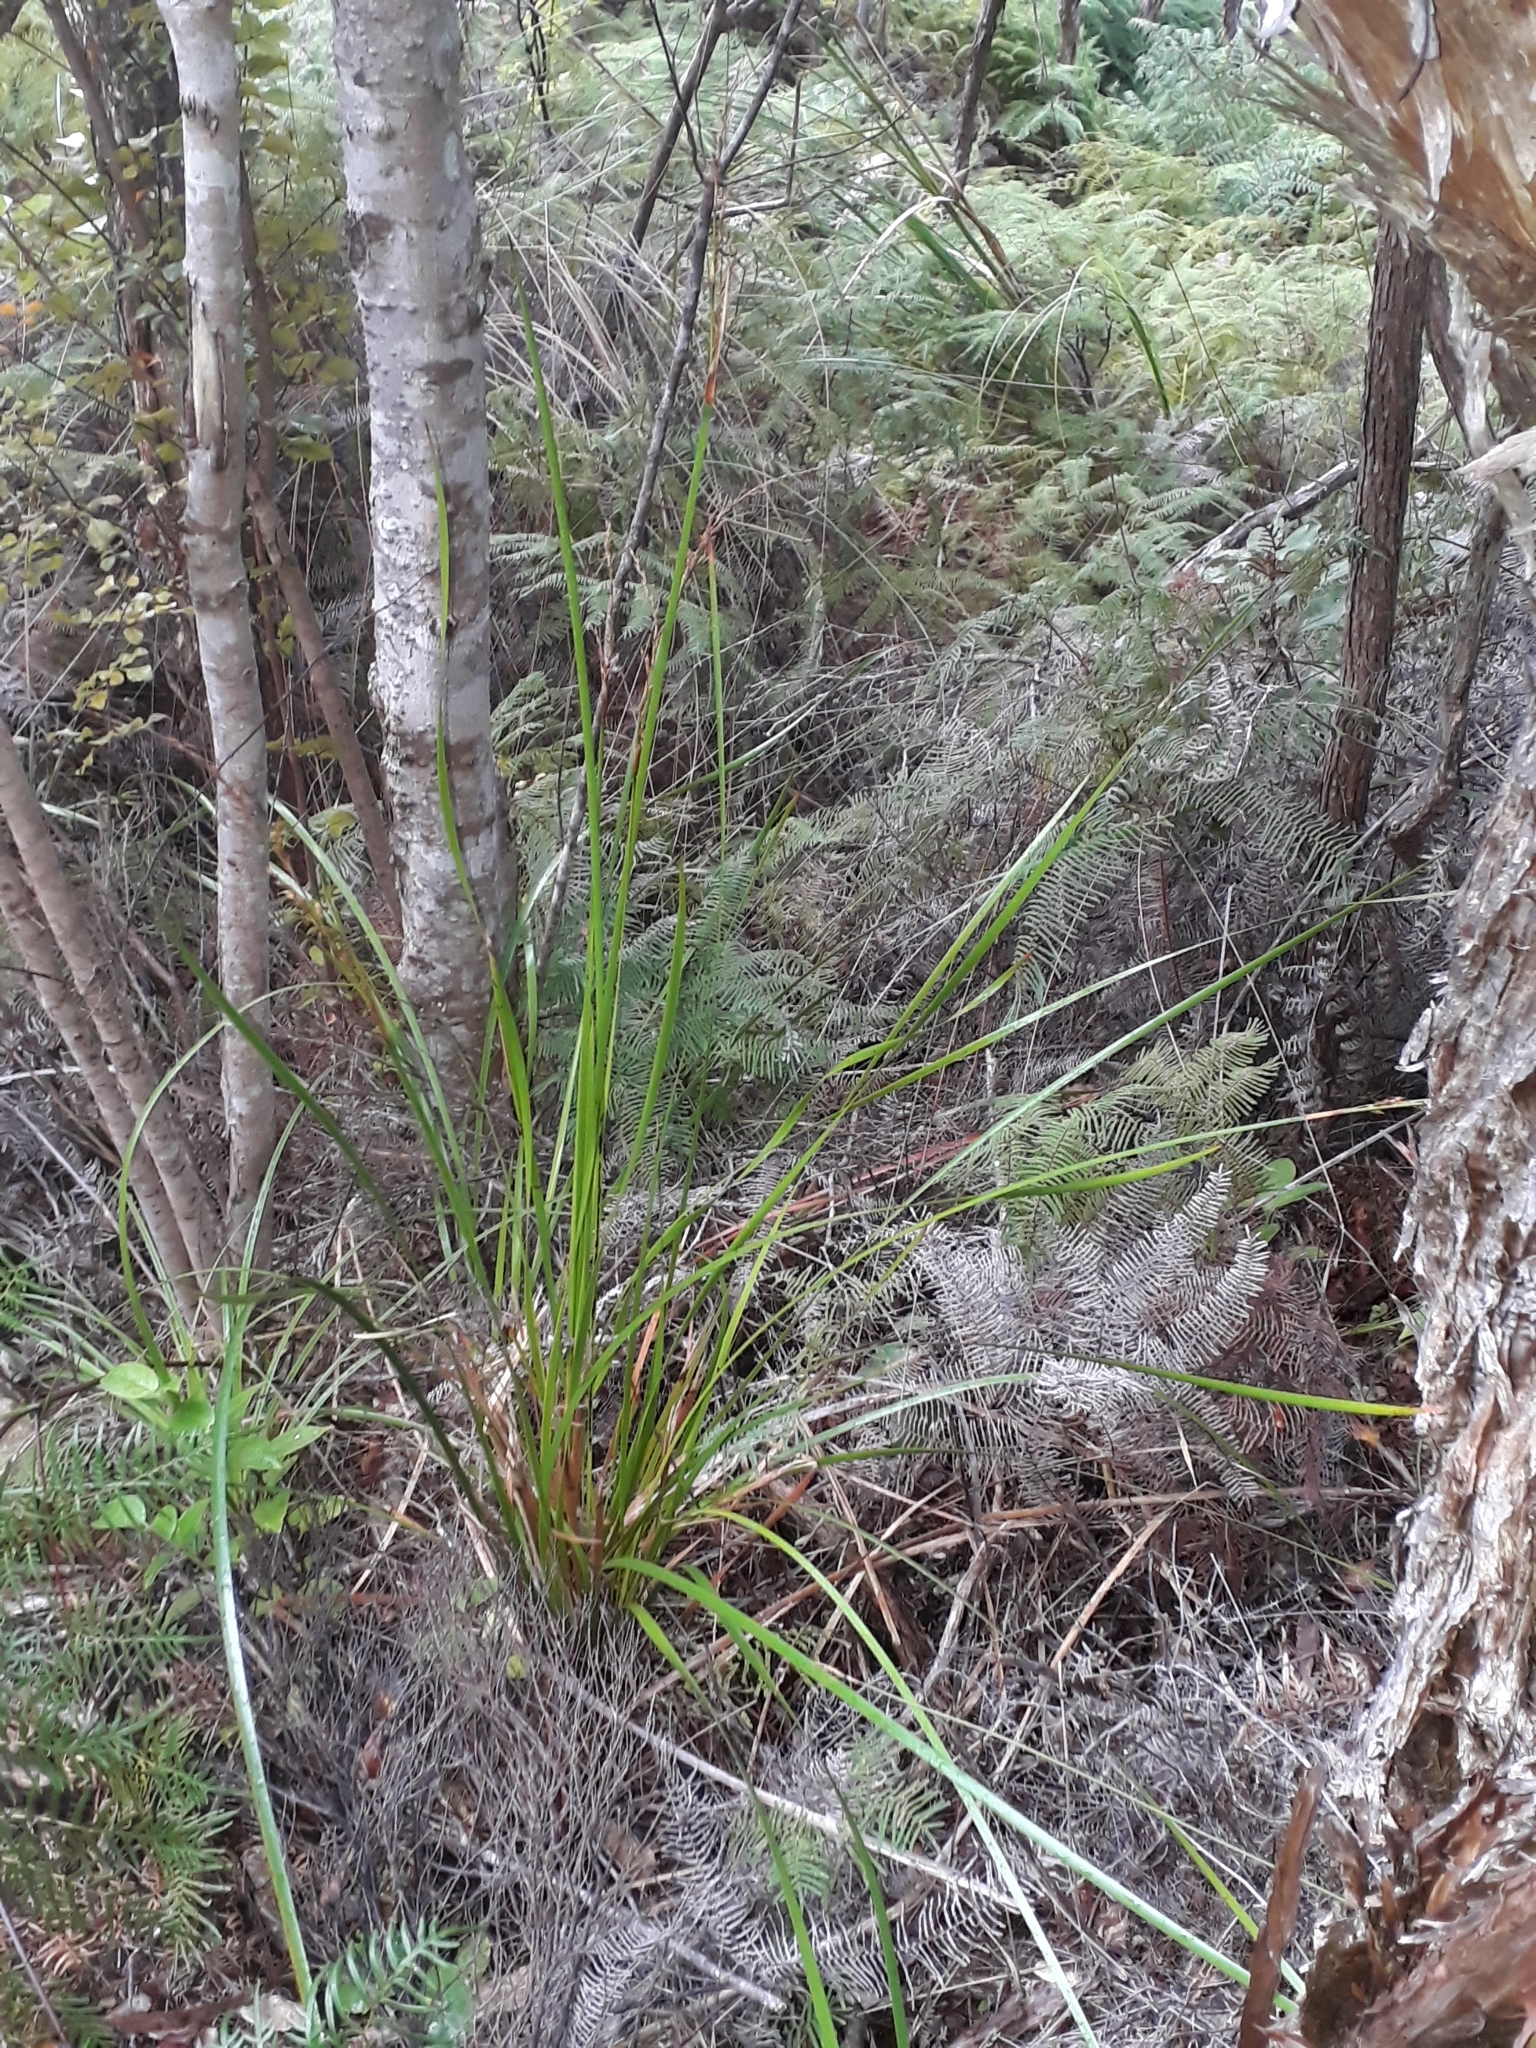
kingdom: Plantae
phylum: Tracheophyta
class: Liliopsida
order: Poales
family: Cyperaceae
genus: Lepidosperma
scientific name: Lepidosperma laterale
